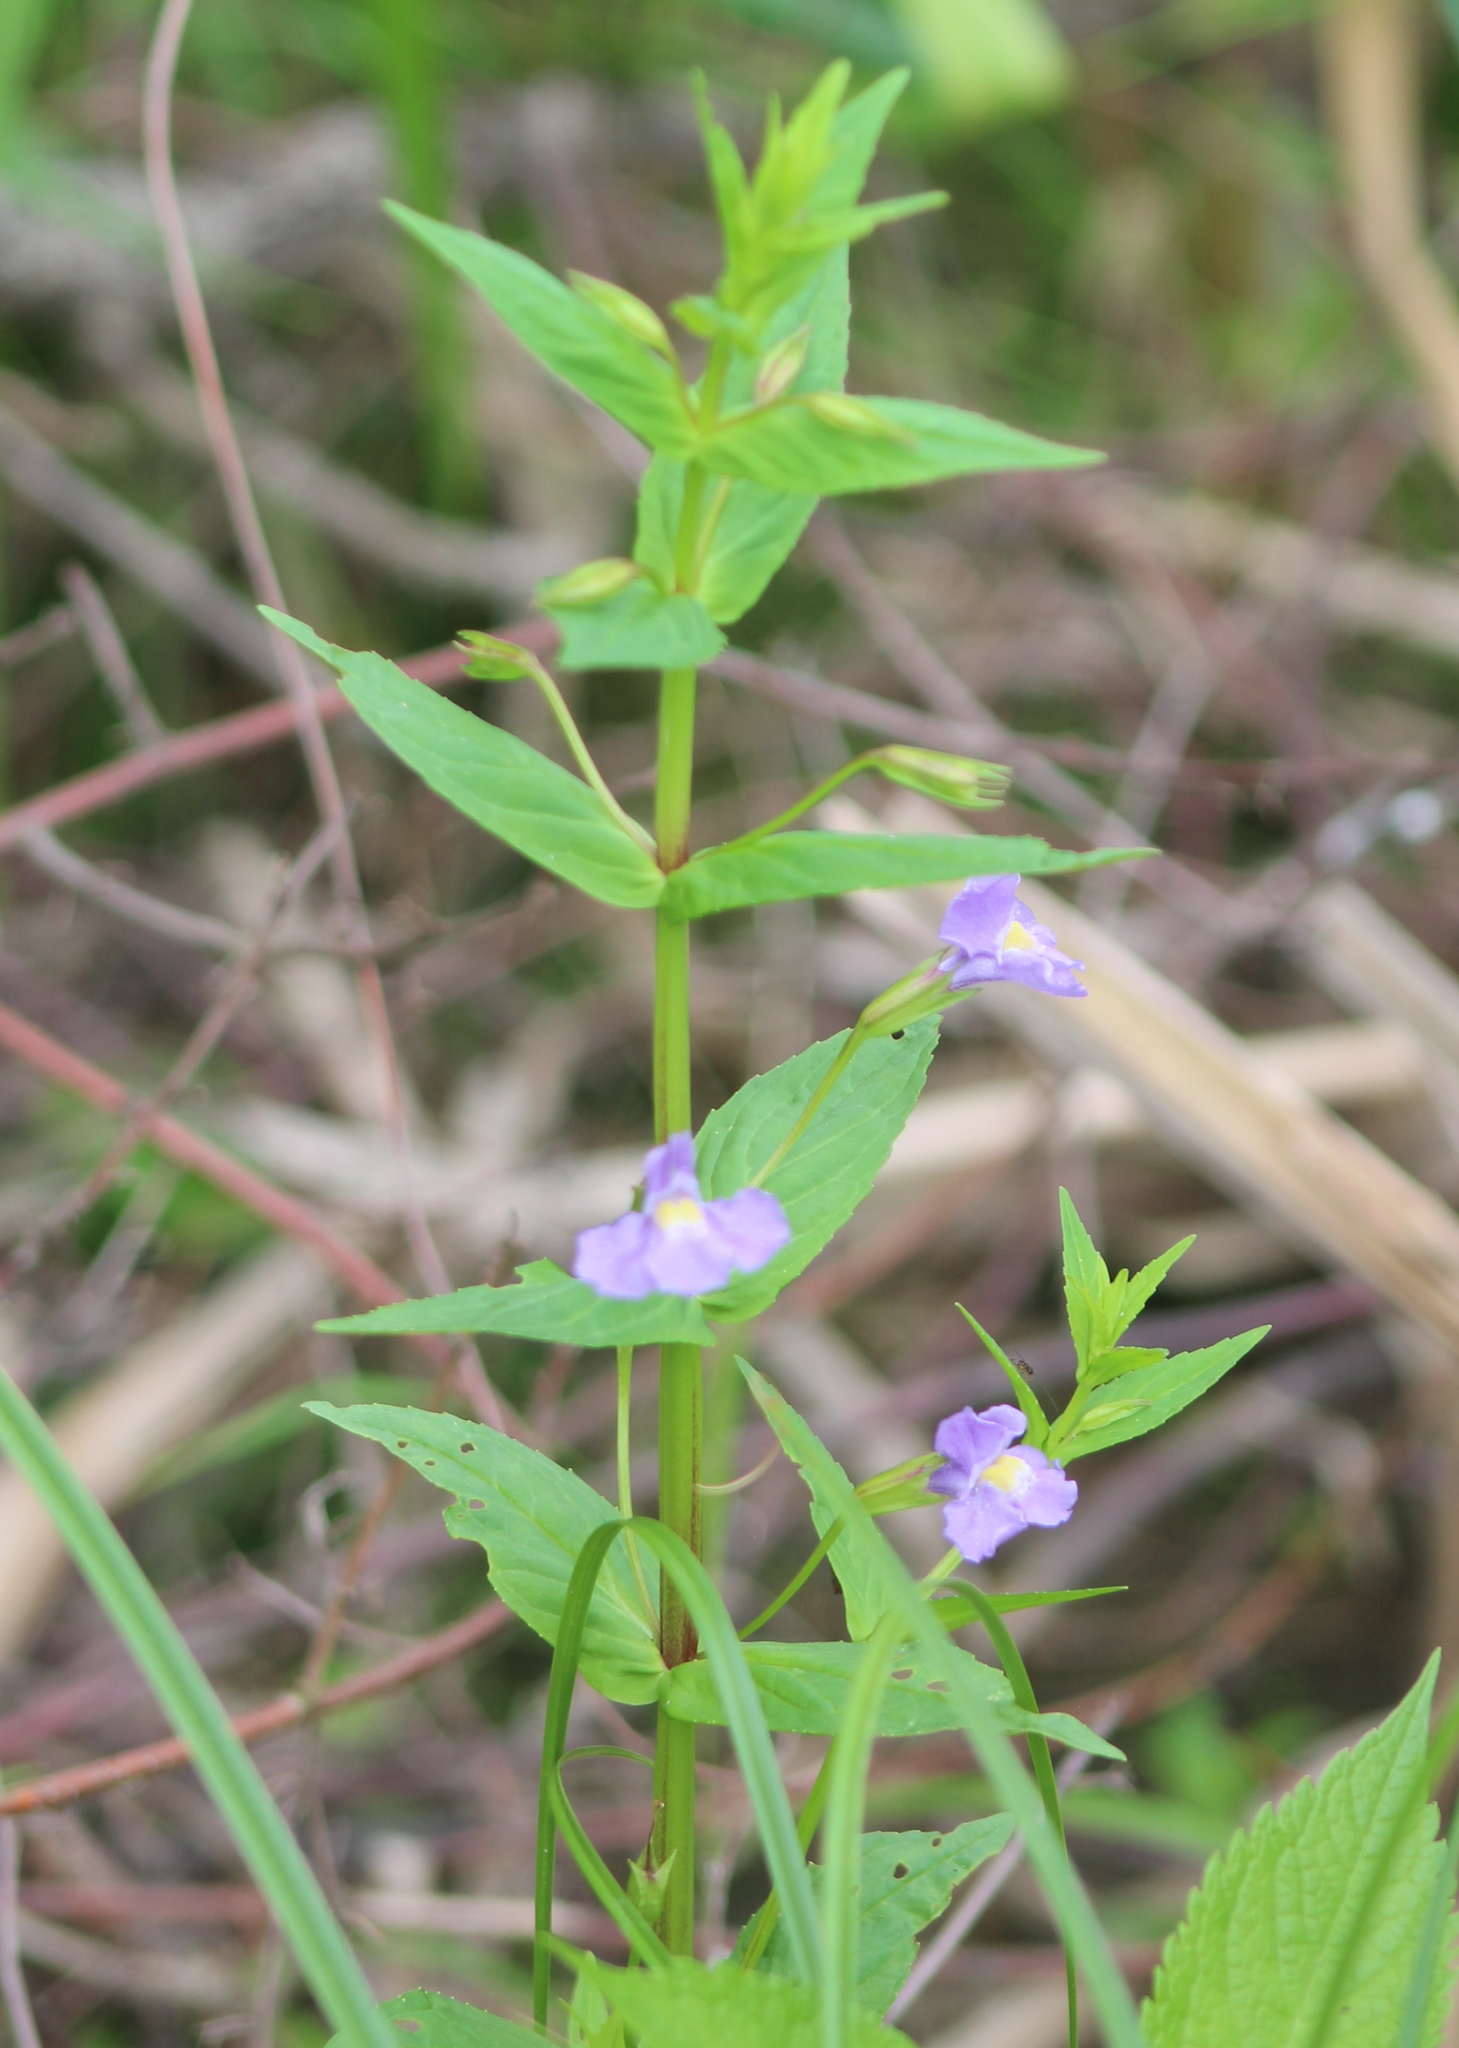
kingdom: Plantae
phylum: Tracheophyta
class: Magnoliopsida
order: Lamiales
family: Phrymaceae
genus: Mimulus
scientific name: Mimulus ringens
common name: Allegheny monkeyflower
